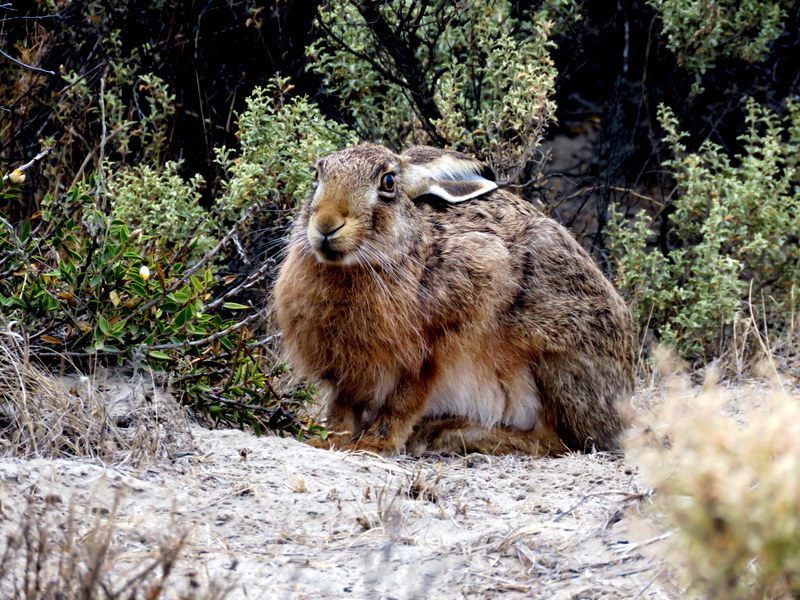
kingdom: Animalia
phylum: Chordata
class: Mammalia
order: Lagomorpha
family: Leporidae
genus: Lepus
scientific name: Lepus europaeus
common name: European hare
